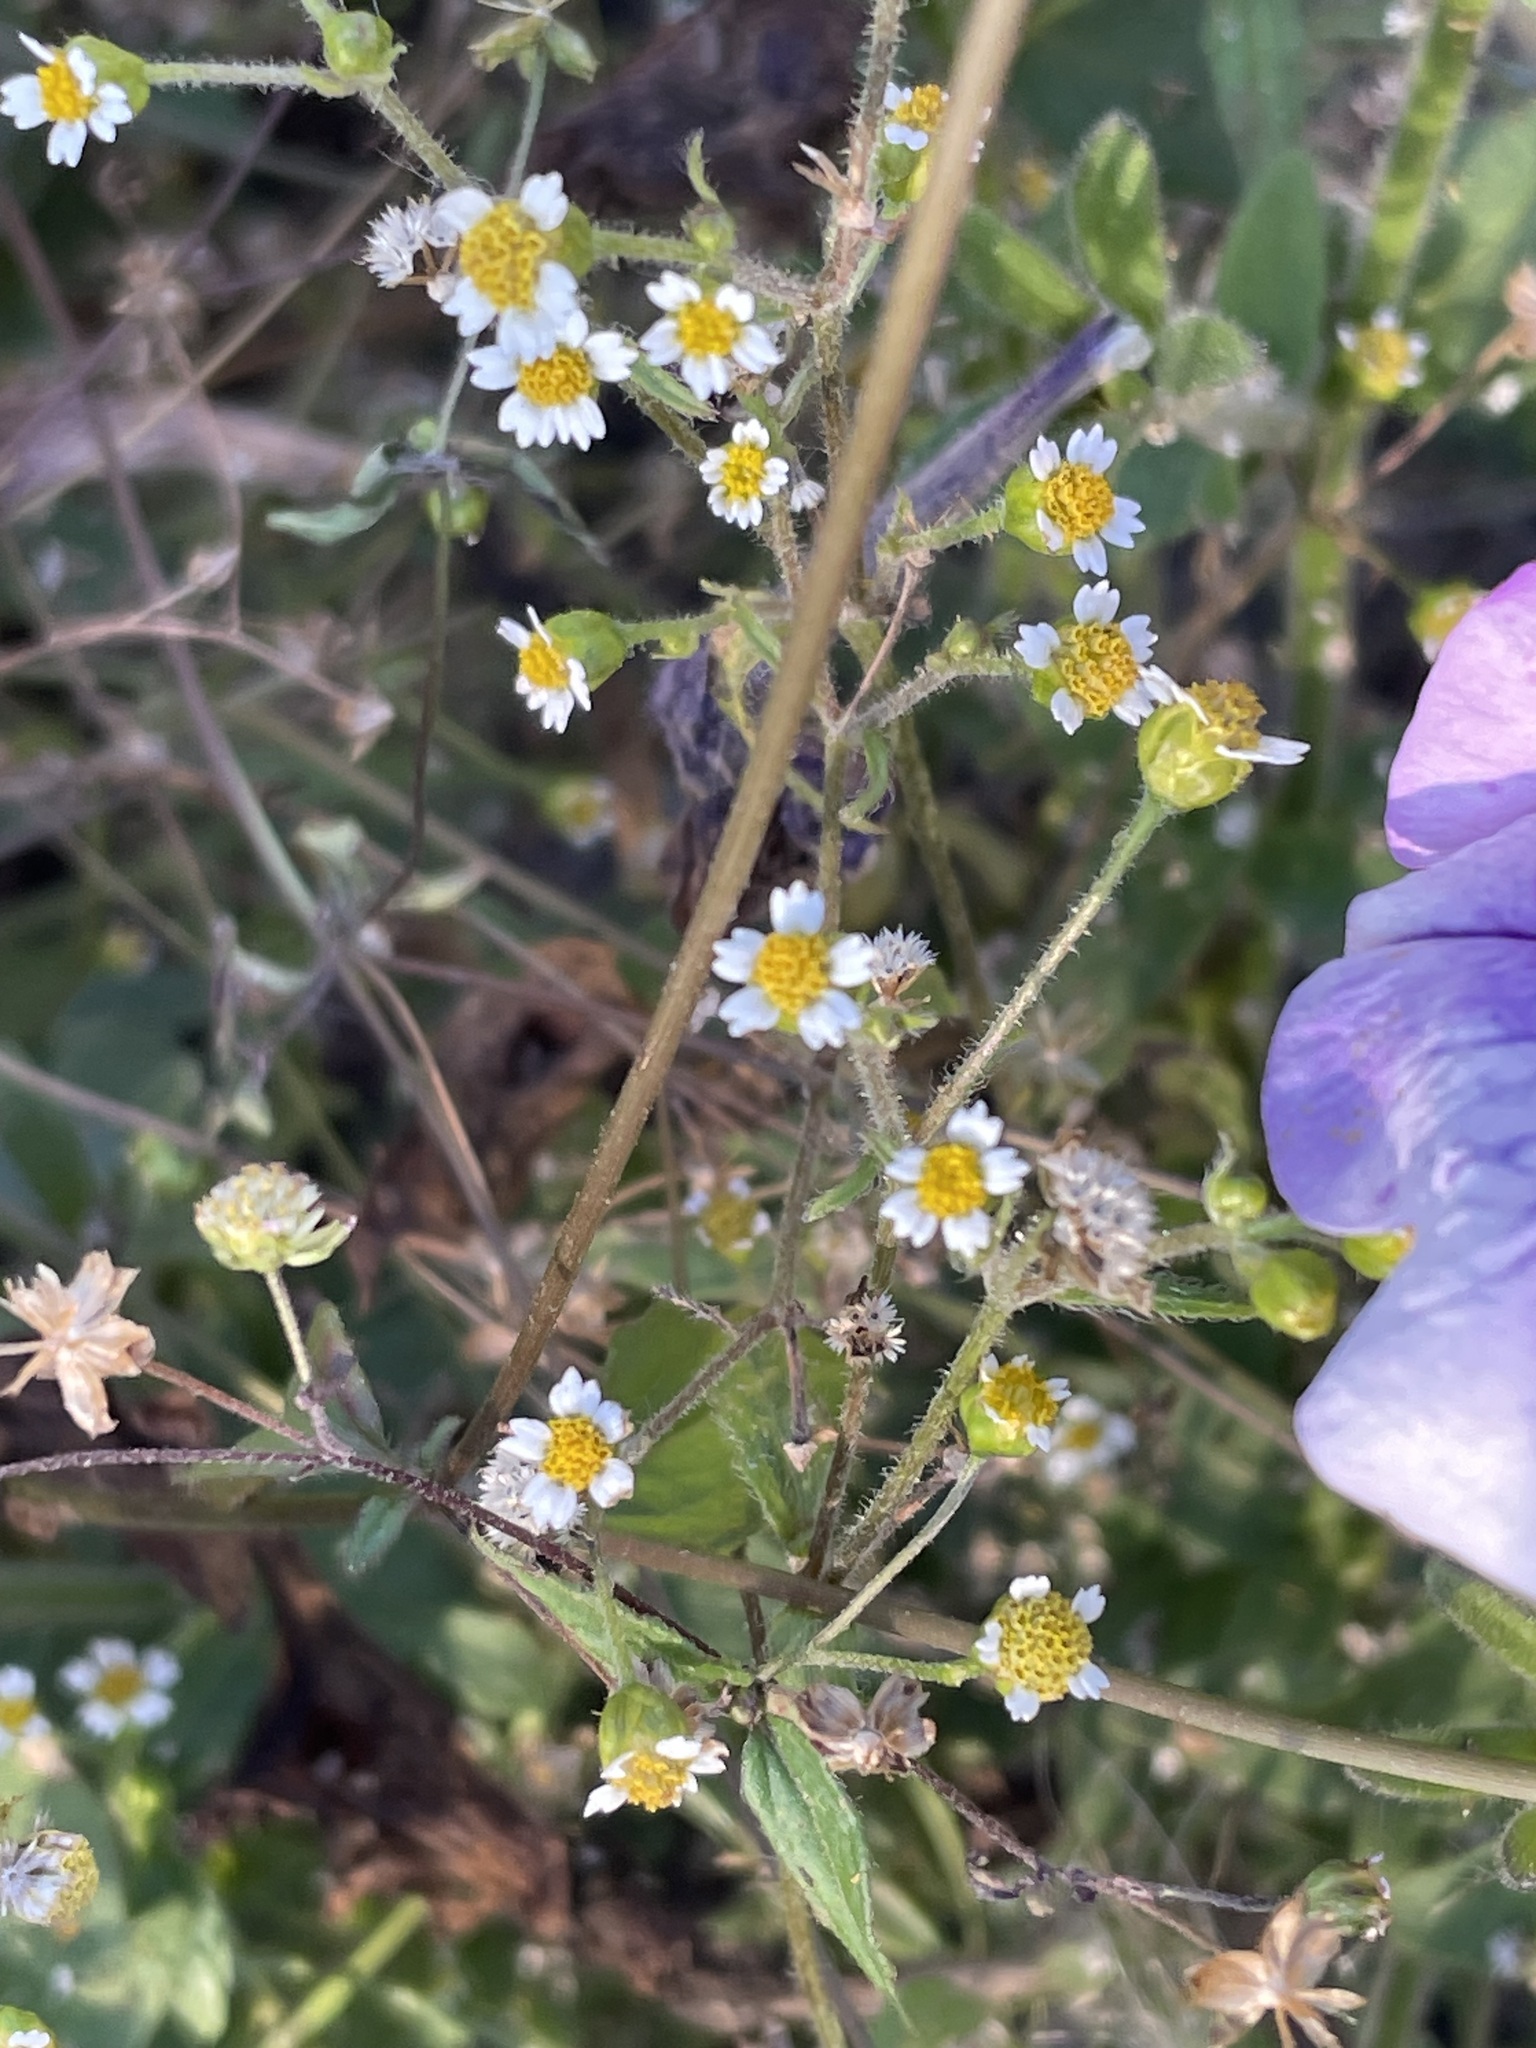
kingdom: Plantae
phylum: Tracheophyta
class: Magnoliopsida
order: Asterales
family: Asteraceae
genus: Galinsoga
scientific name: Galinsoga quadriradiata
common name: Shaggy soldier
